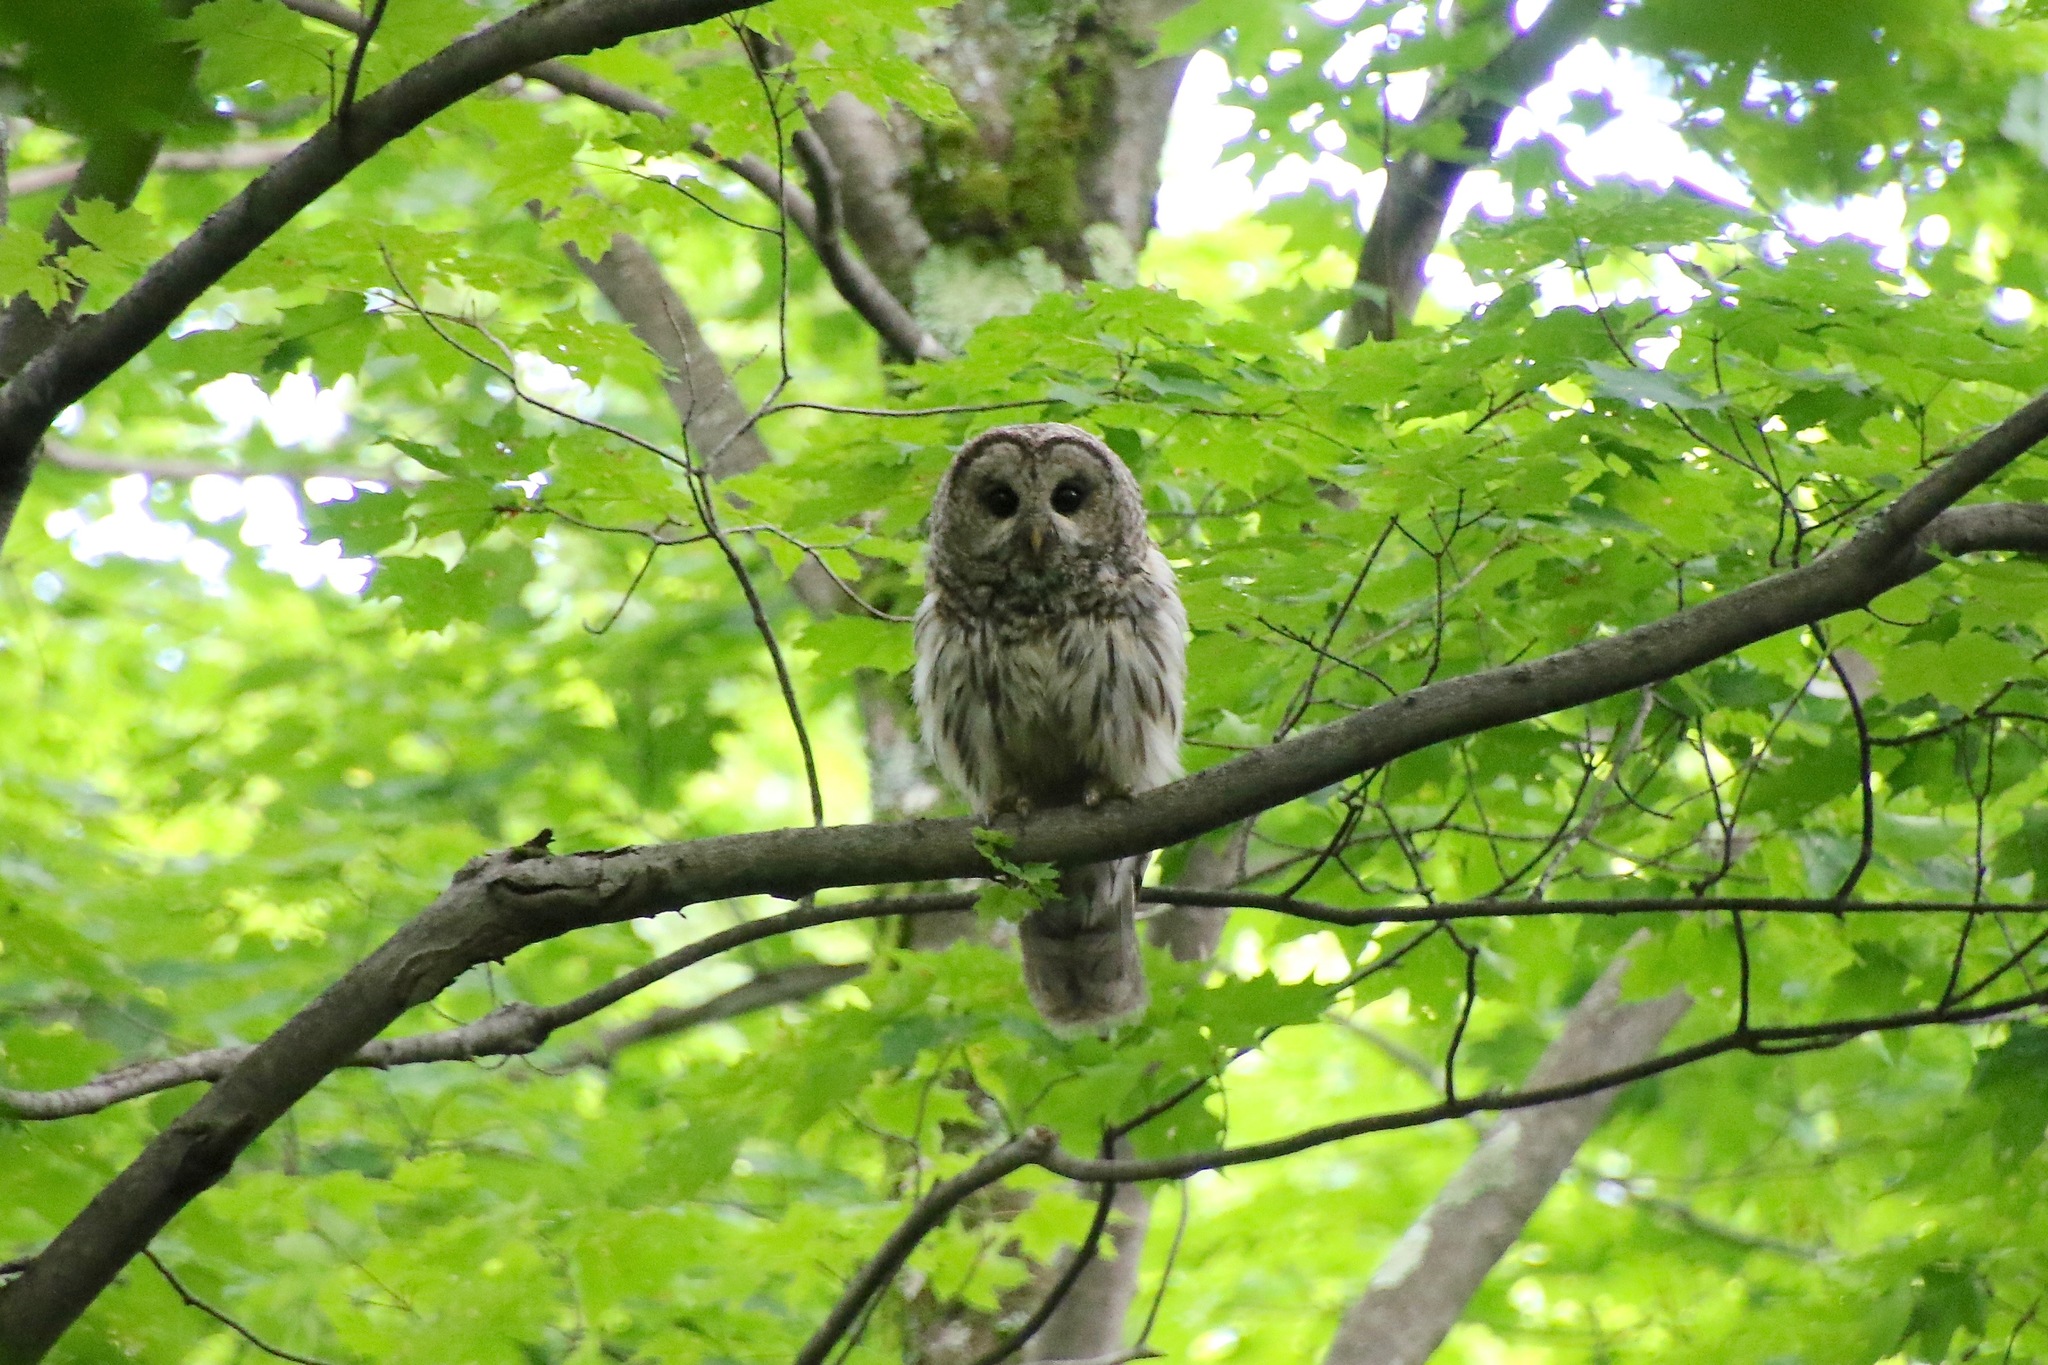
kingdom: Animalia
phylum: Chordata
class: Aves
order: Strigiformes
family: Strigidae
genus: Strix
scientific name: Strix varia
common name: Barred owl
